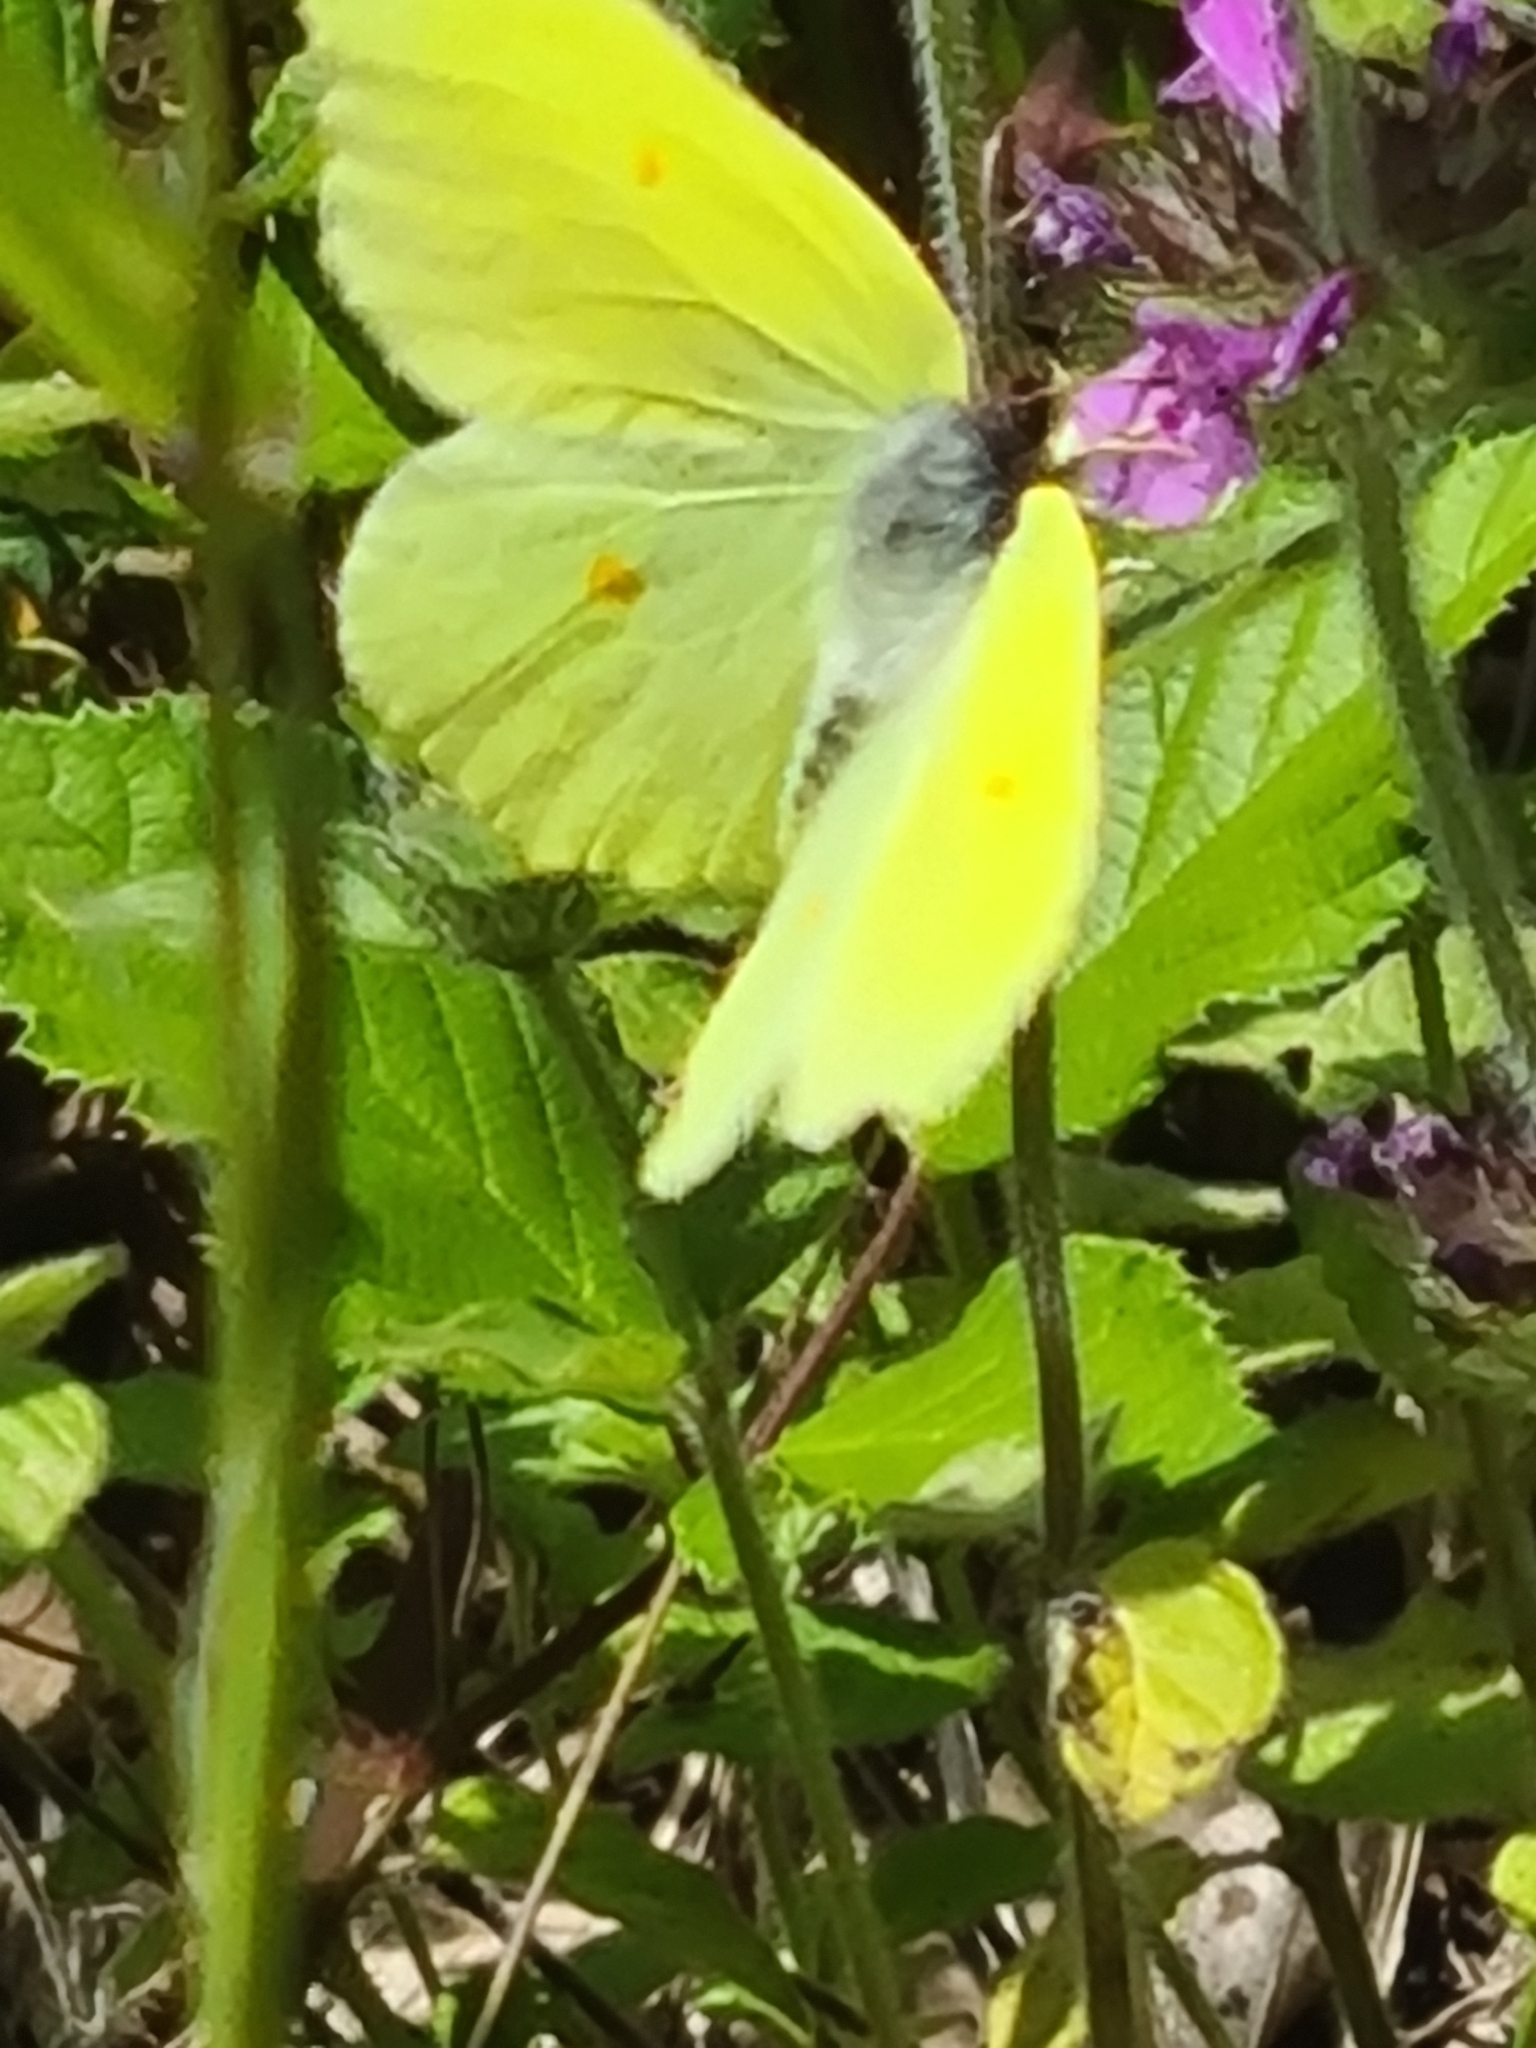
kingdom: Animalia
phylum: Arthropoda
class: Insecta
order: Lepidoptera
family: Pieridae
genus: Gonepteryx
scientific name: Gonepteryx rhamni
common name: Brimstone
